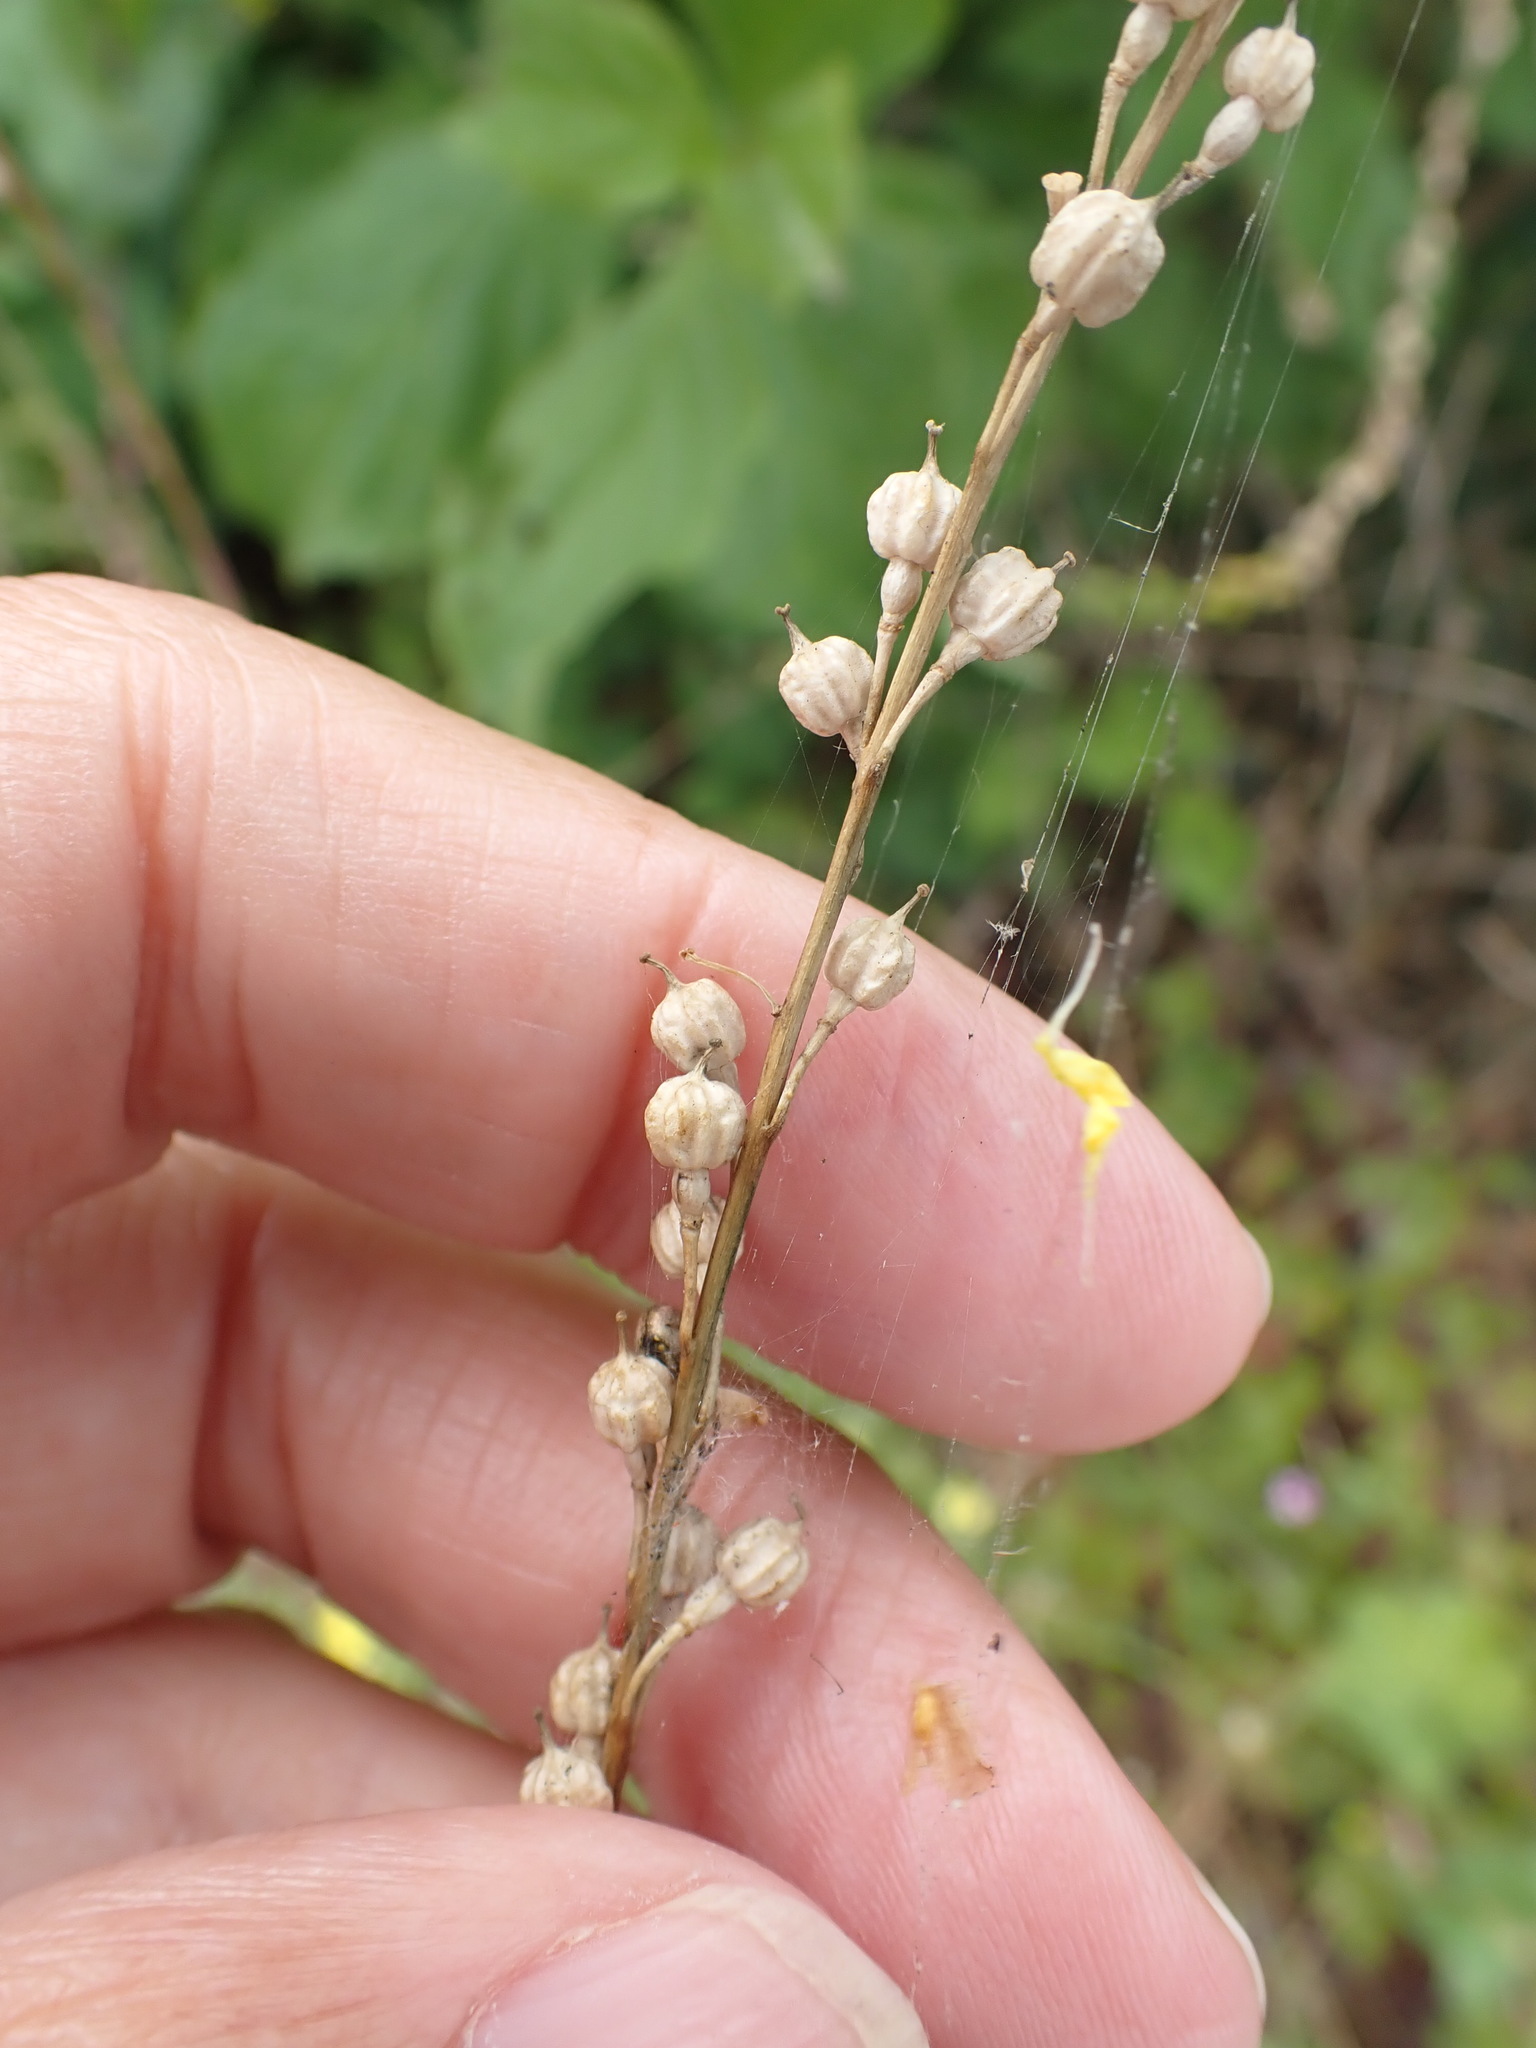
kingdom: Plantae
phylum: Tracheophyta
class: Magnoliopsida
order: Brassicales
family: Brassicaceae
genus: Rapistrum
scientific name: Rapistrum rugosum
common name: Annual bastardcabbage
